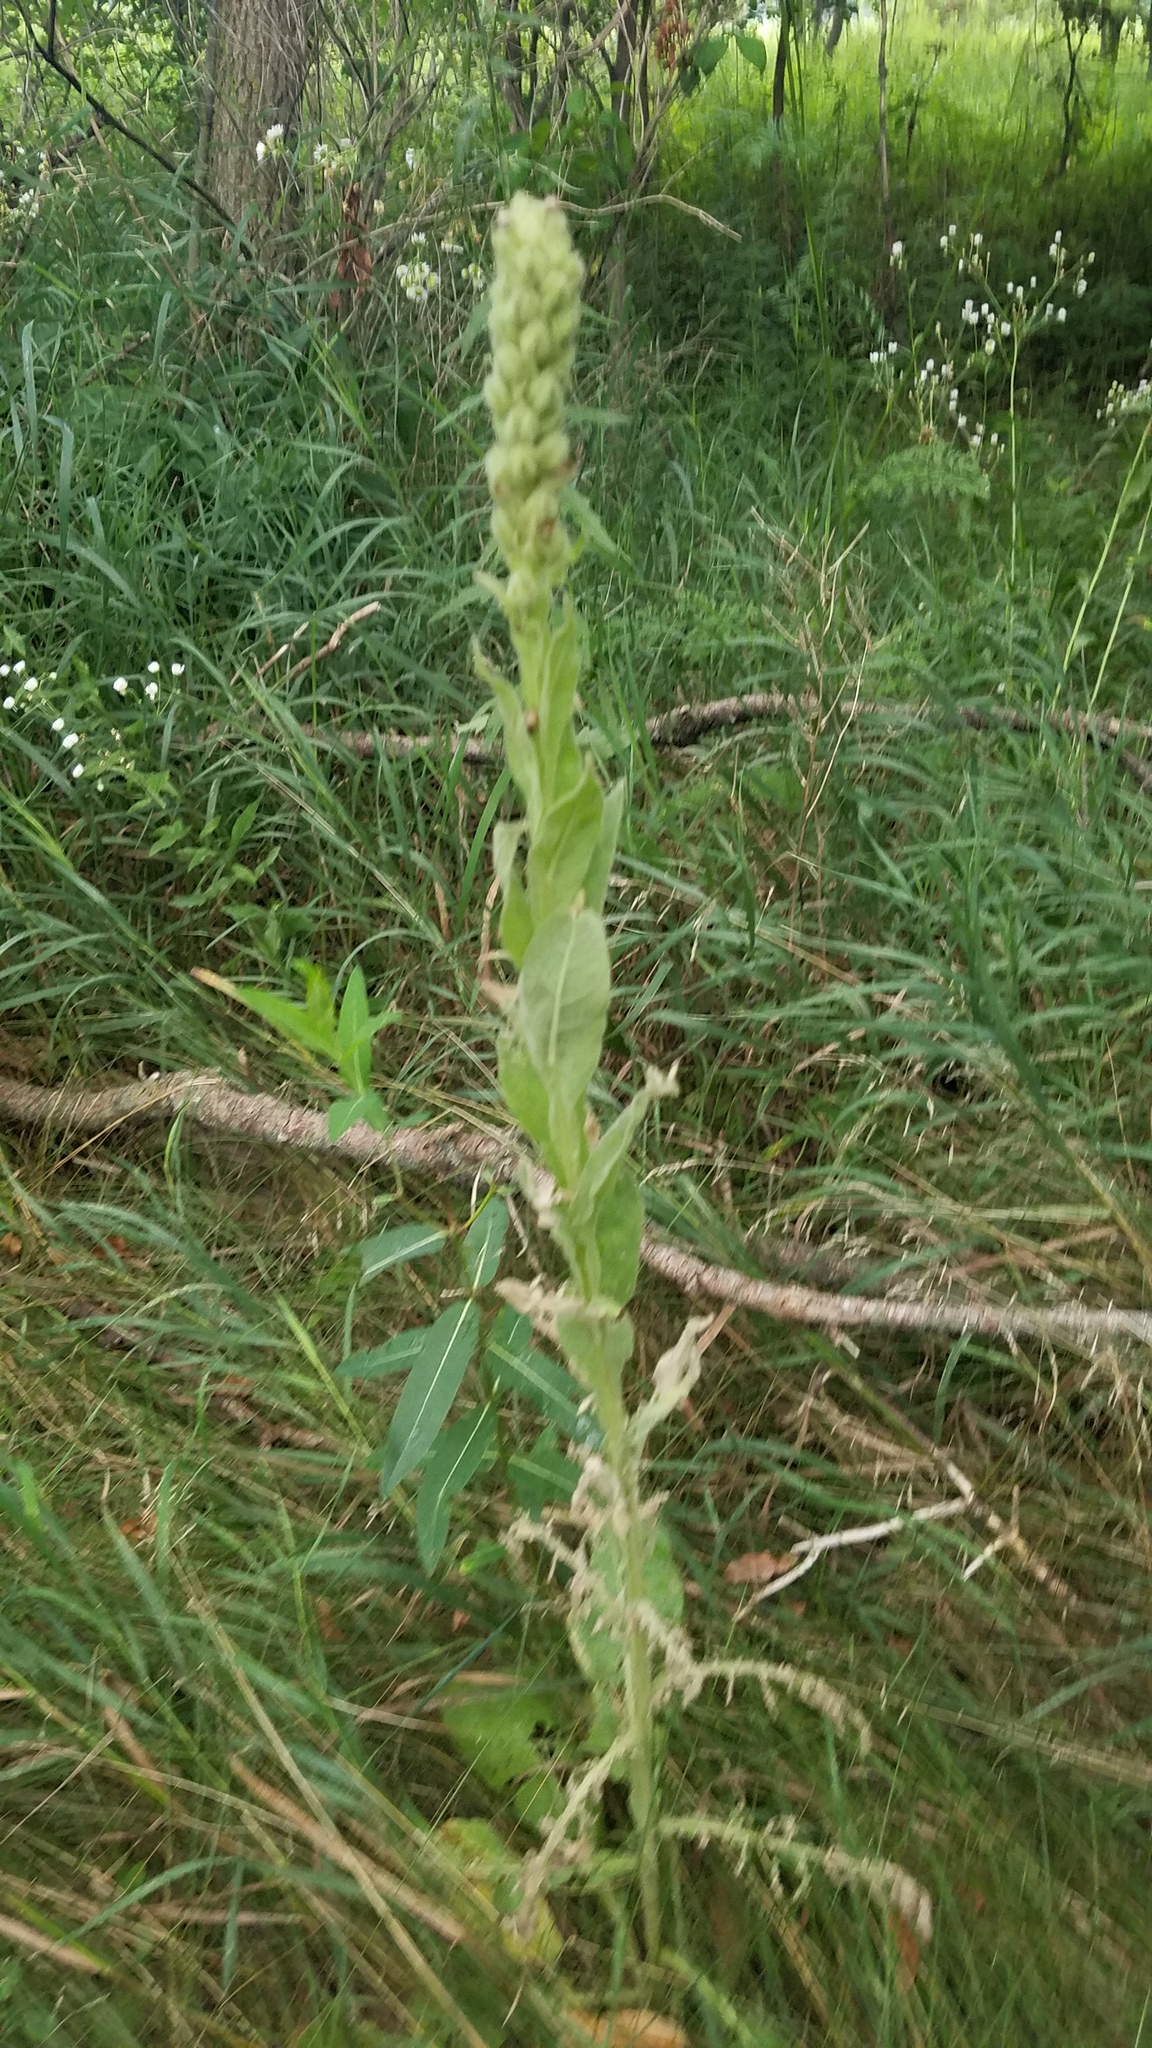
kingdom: Plantae
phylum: Tracheophyta
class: Magnoliopsida
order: Lamiales
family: Scrophulariaceae
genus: Verbascum
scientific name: Verbascum thapsus
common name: Common mullein
